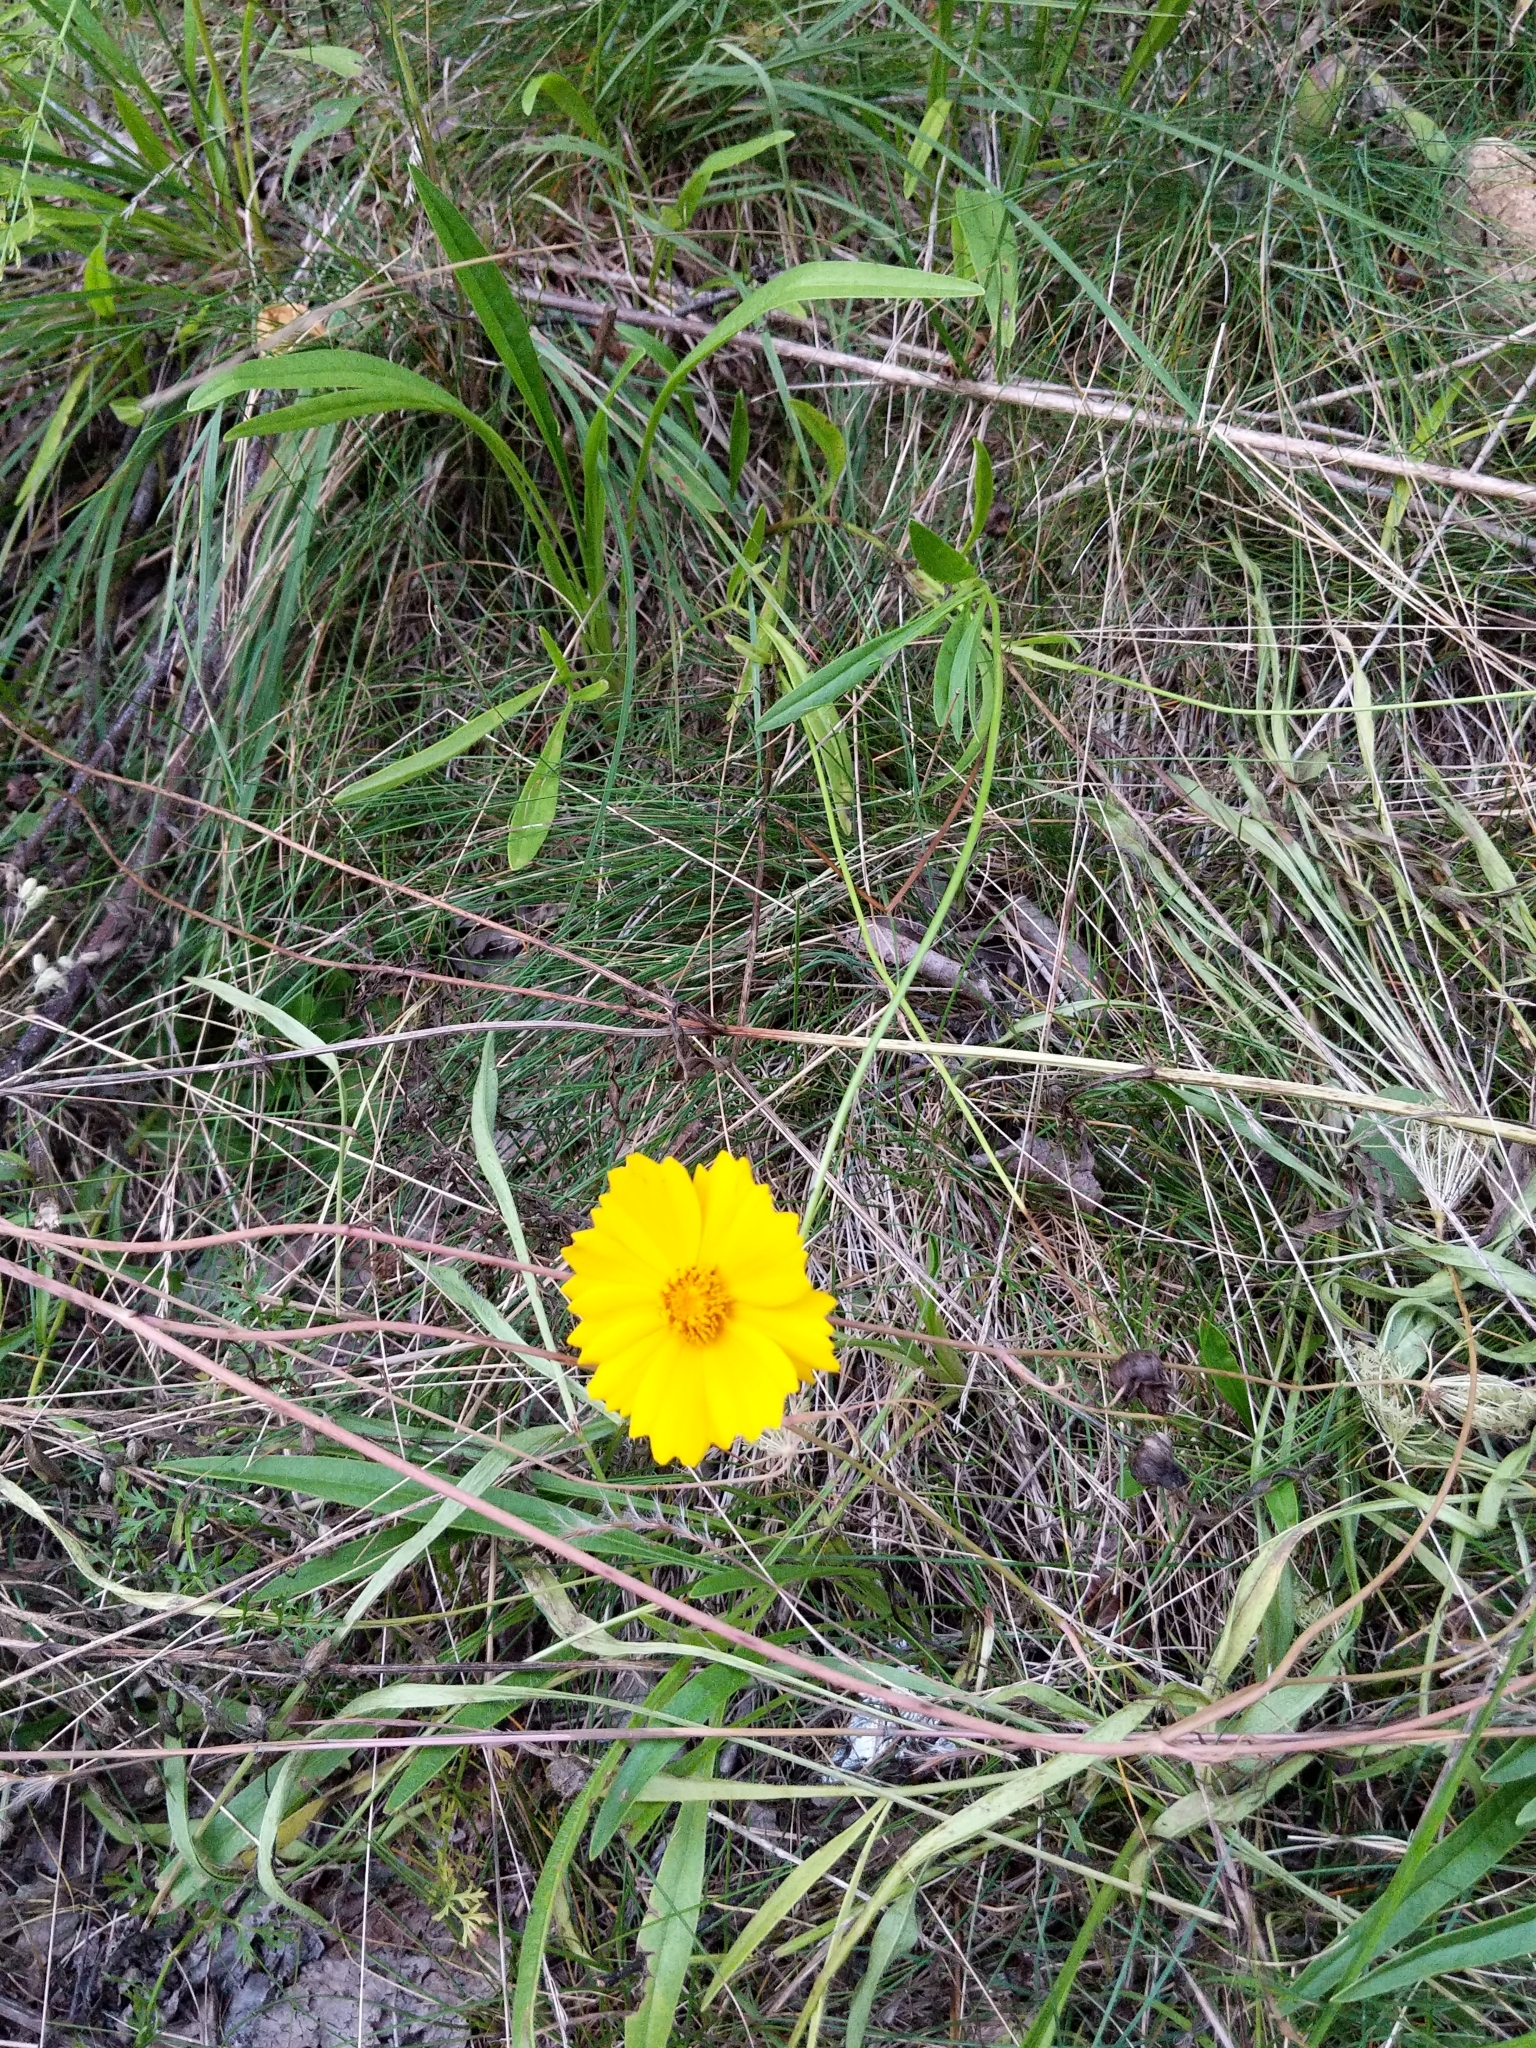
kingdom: Plantae
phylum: Tracheophyta
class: Magnoliopsida
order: Asterales
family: Asteraceae
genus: Coreopsis
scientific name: Coreopsis lanceolata
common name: Garden coreopsis
